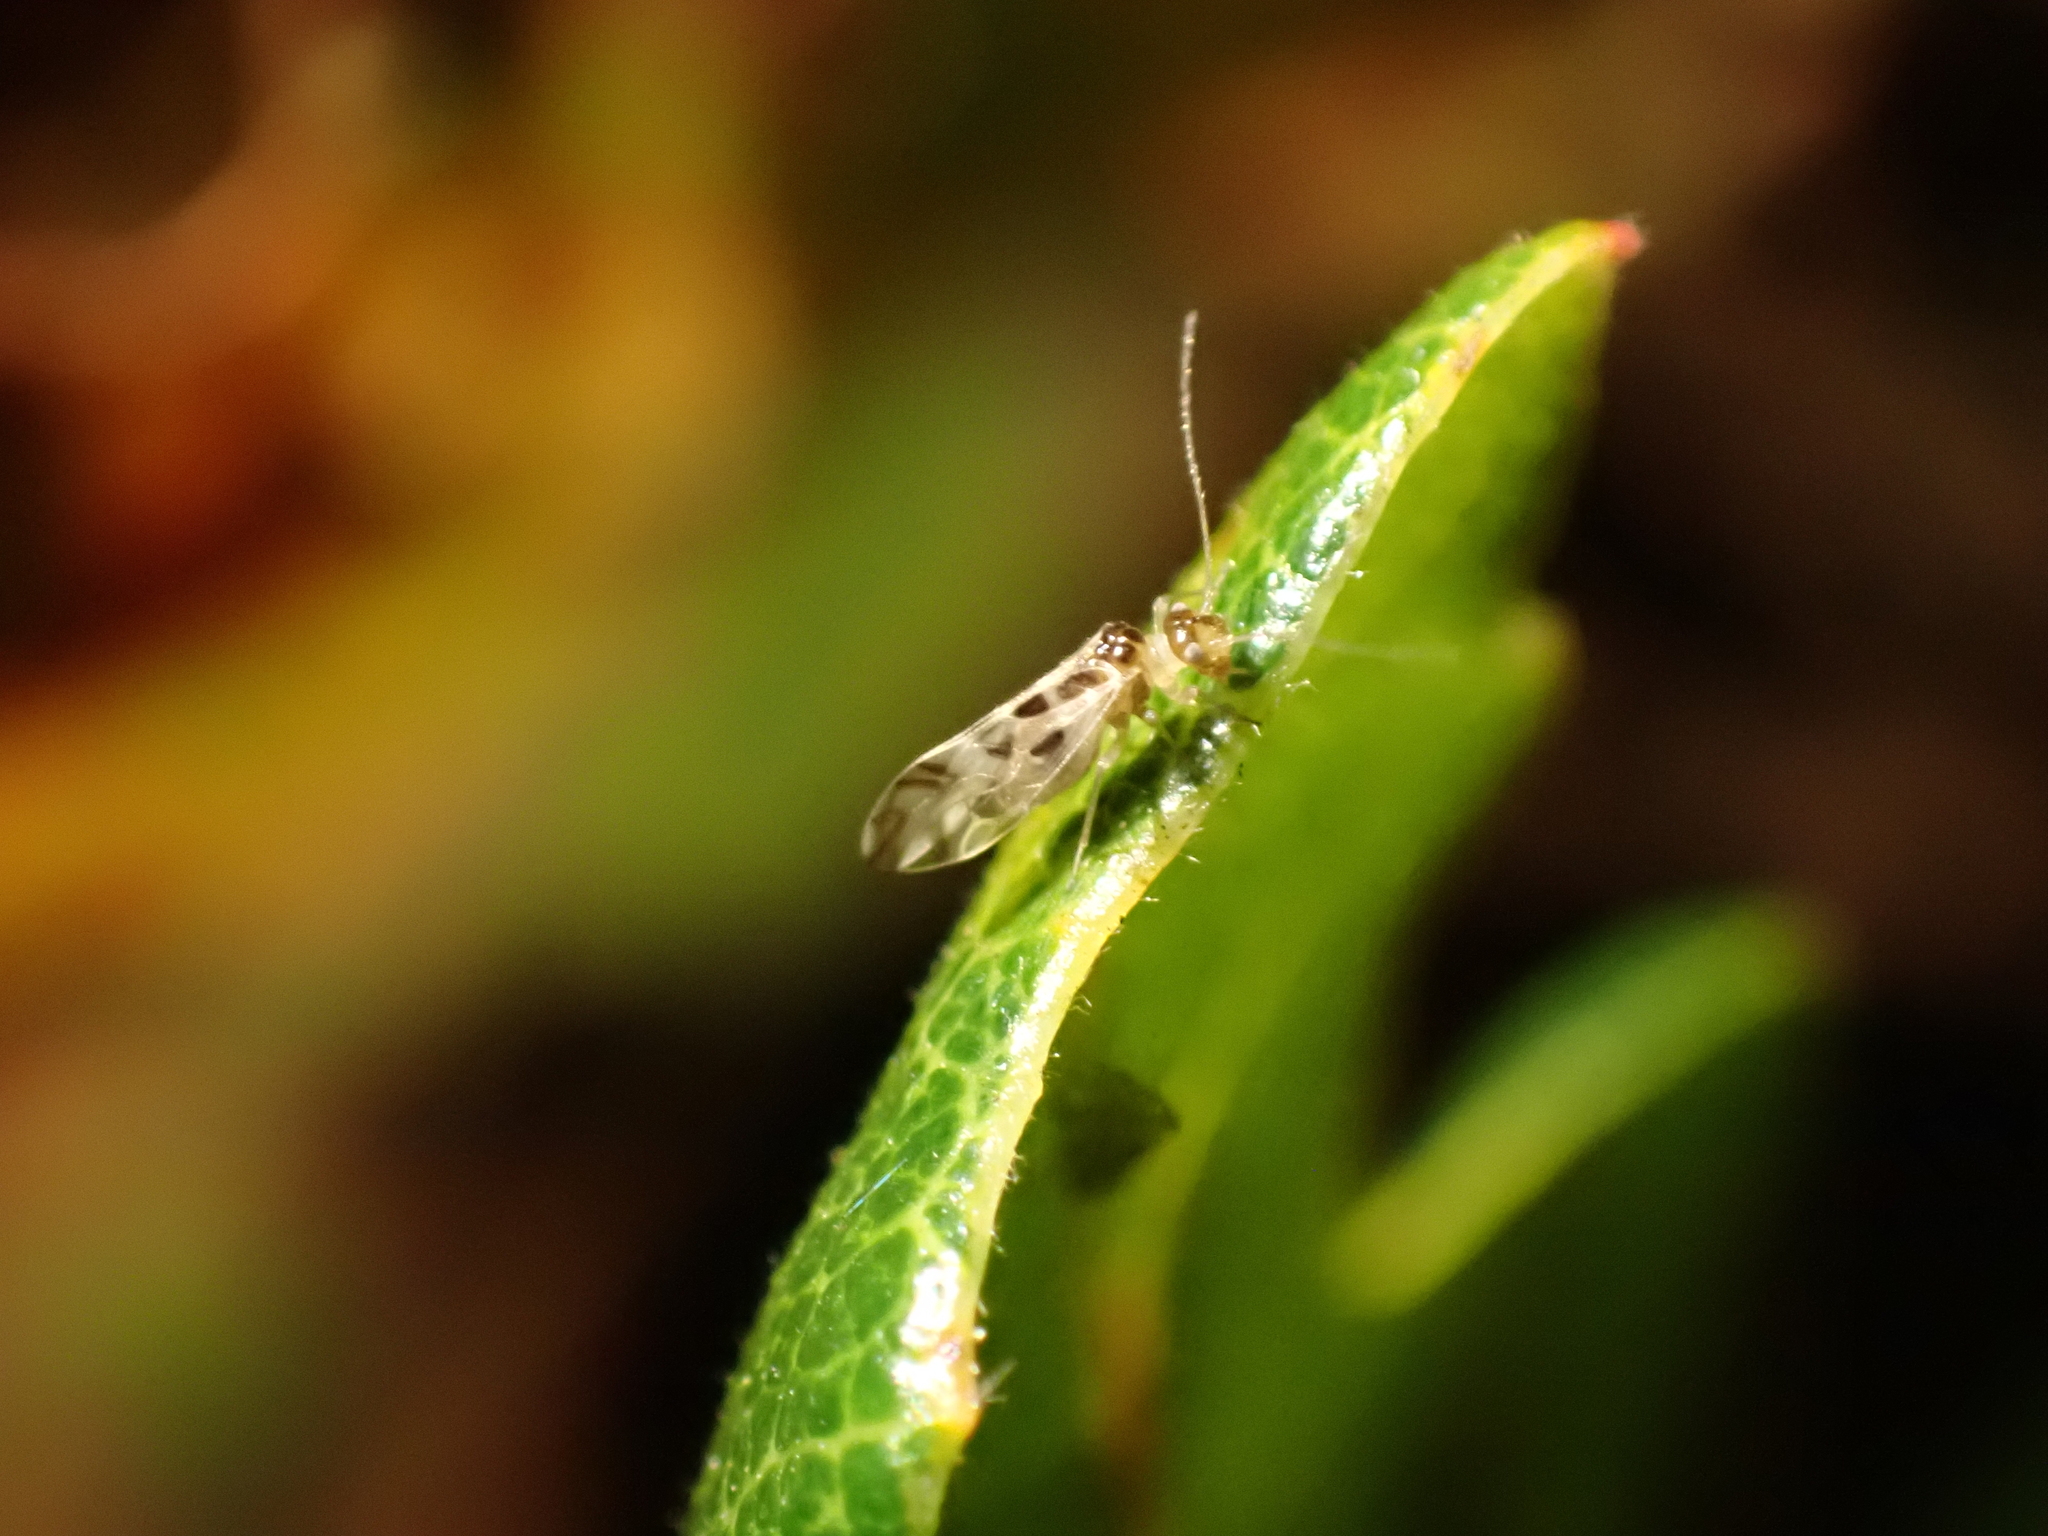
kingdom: Animalia
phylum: Arthropoda
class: Insecta
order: Psocodea
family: Stenopsocidae
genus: Graphopsocus
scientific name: Graphopsocus cruciatus
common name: Lizard bark louse
